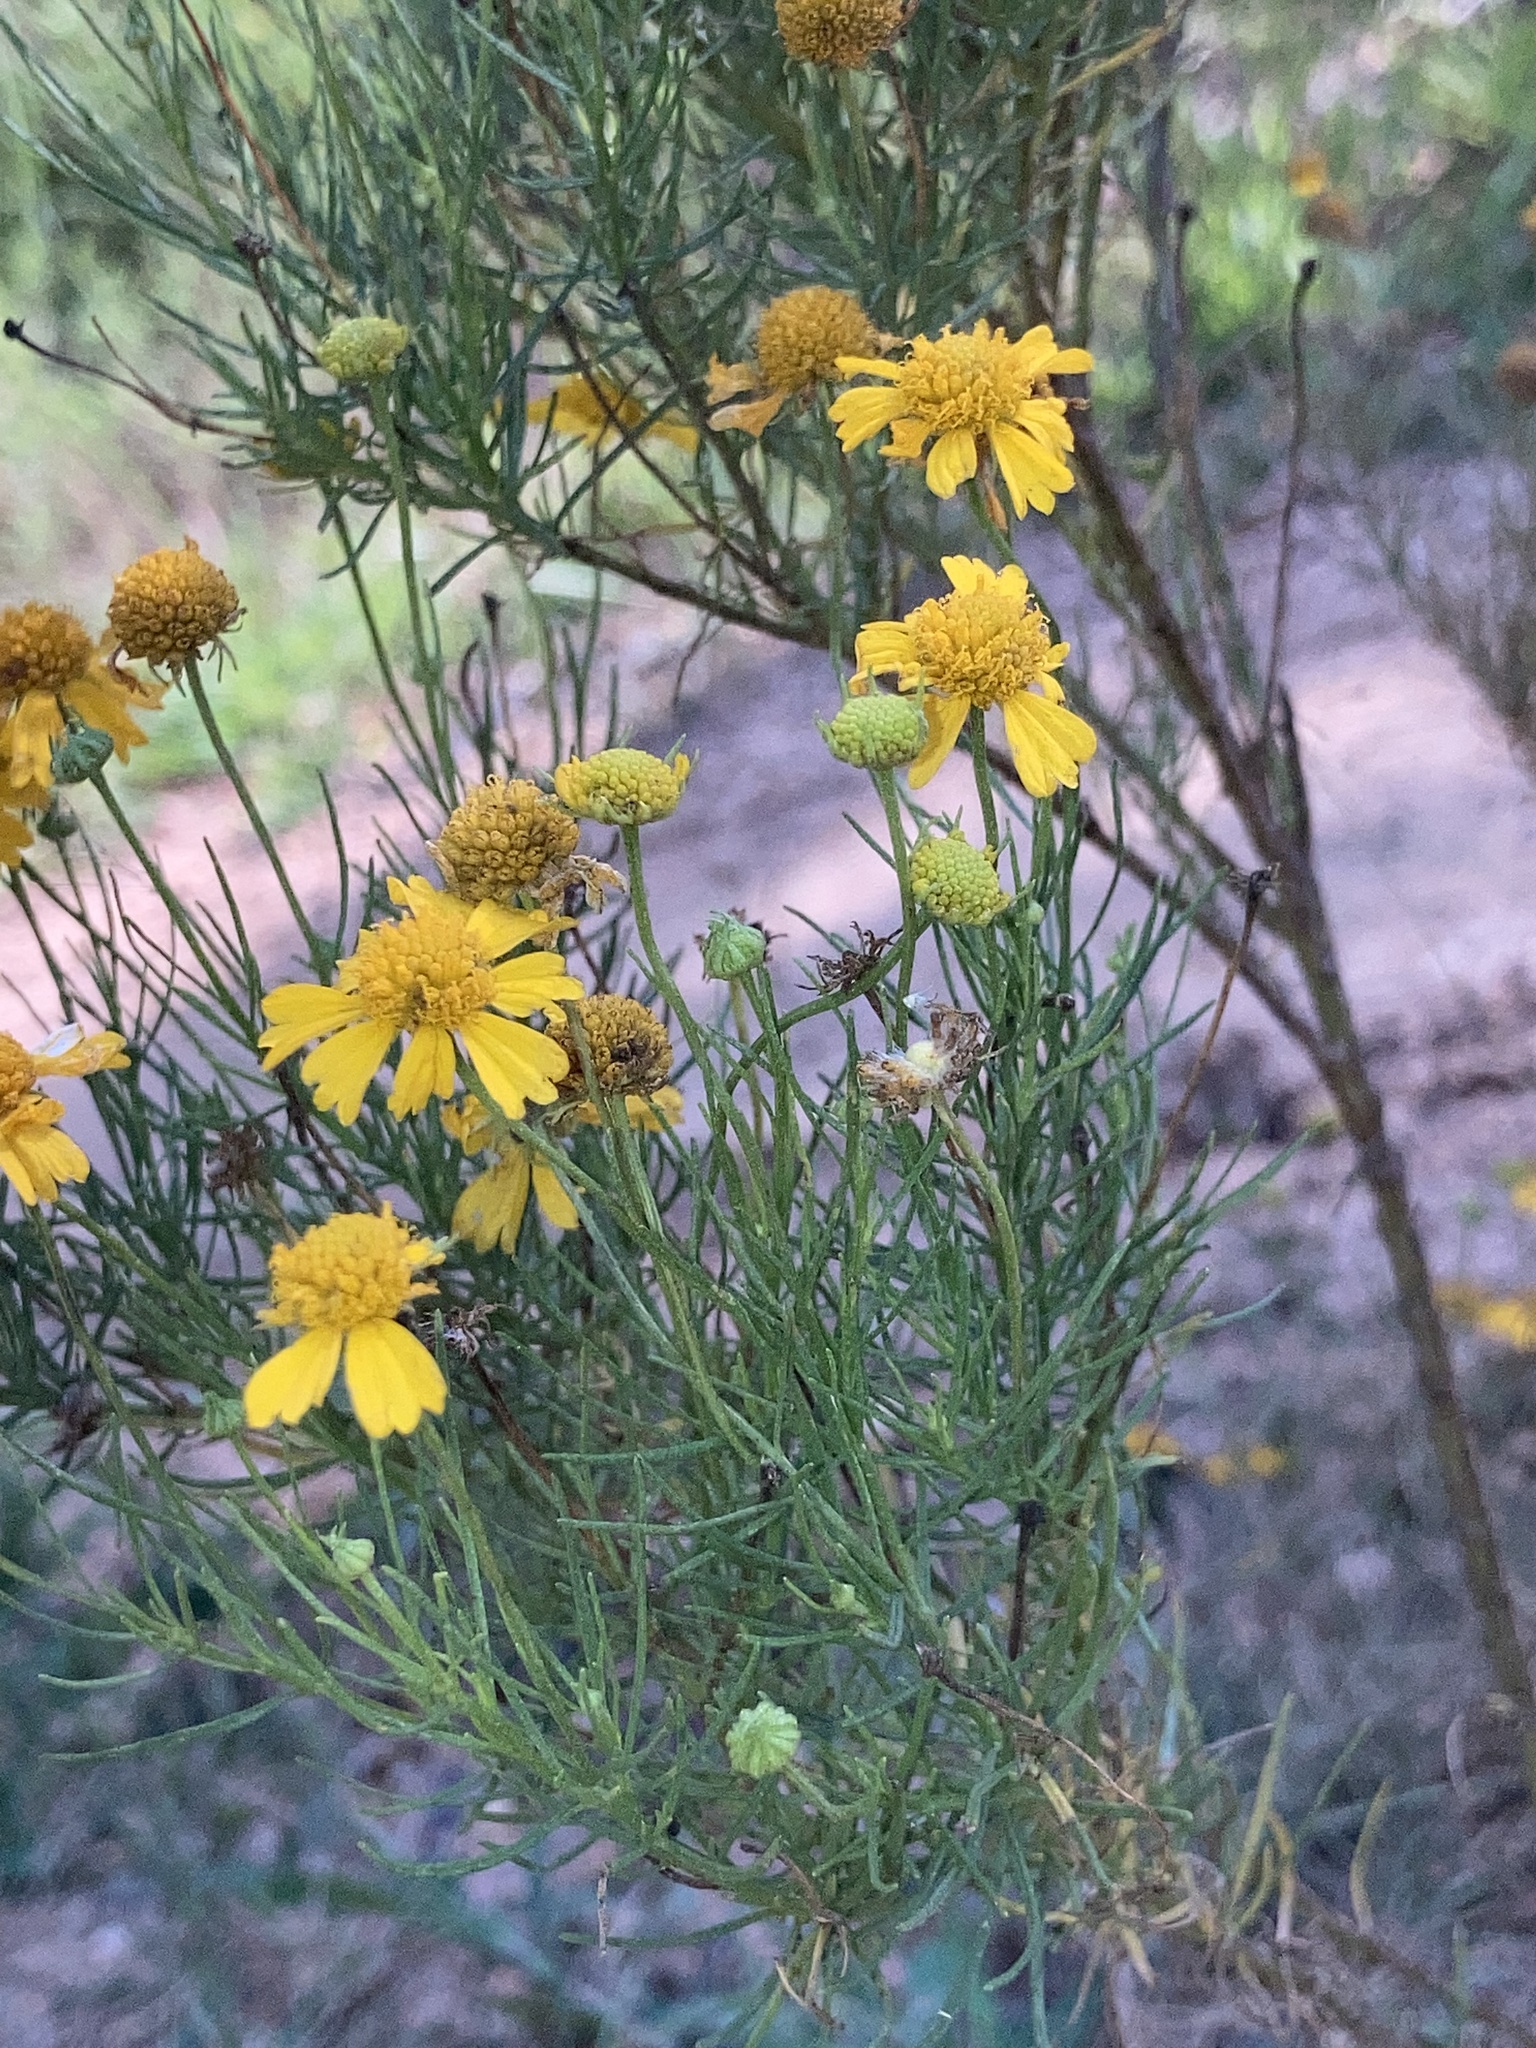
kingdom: Plantae
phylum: Tracheophyta
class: Magnoliopsida
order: Asterales
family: Asteraceae
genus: Helenium
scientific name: Helenium amarum
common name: Bitter sneezeweed
